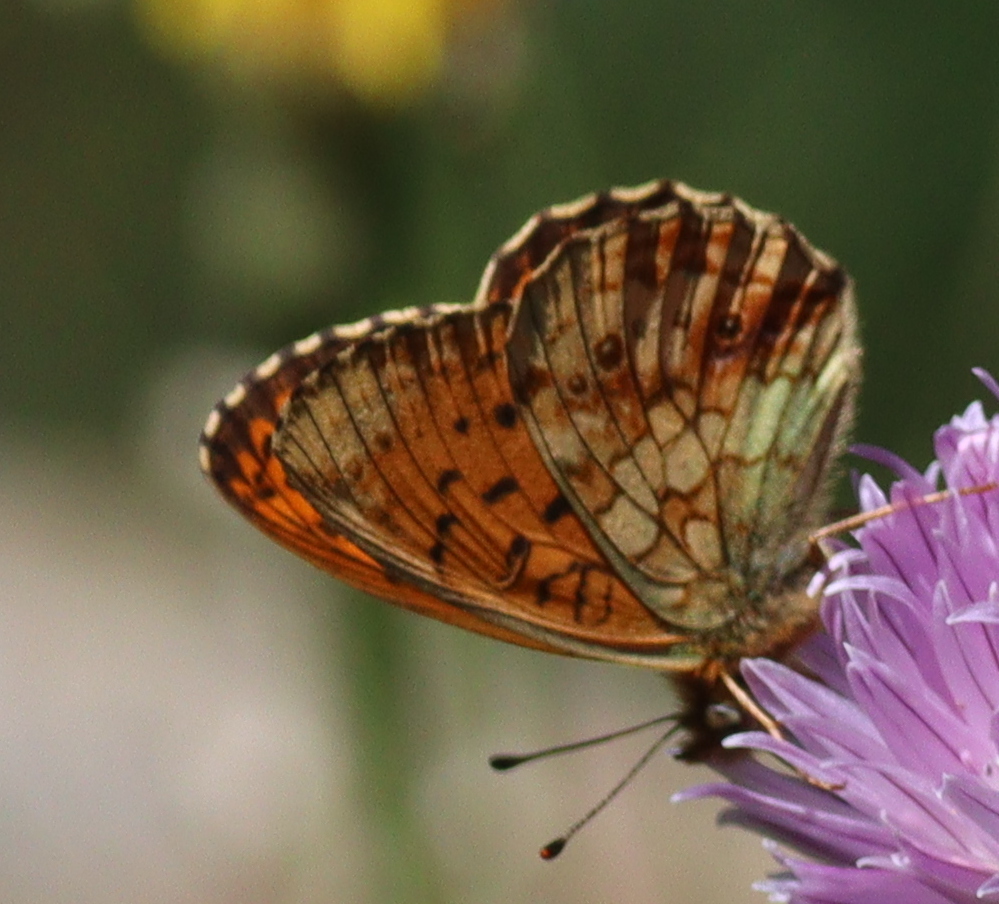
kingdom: Animalia
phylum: Arthropoda
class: Insecta
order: Lepidoptera
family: Nymphalidae
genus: Brenthis
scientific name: Brenthis ino
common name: Lesser marbled fritillary
